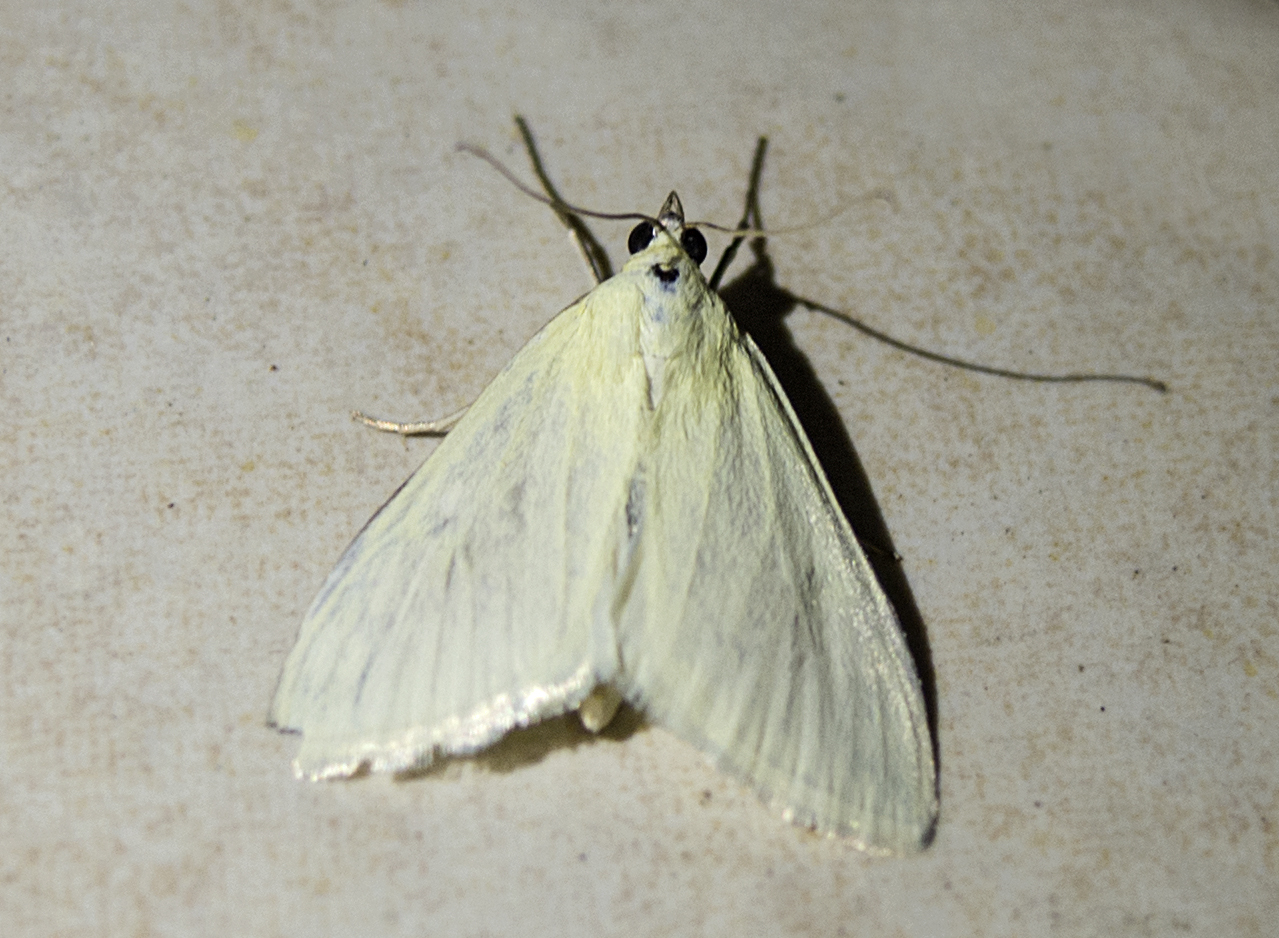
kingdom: Animalia
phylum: Arthropoda
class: Insecta
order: Lepidoptera
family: Crambidae
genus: Sitochroa
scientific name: Sitochroa palealis
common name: Greenish-yellow sitochroa moth
